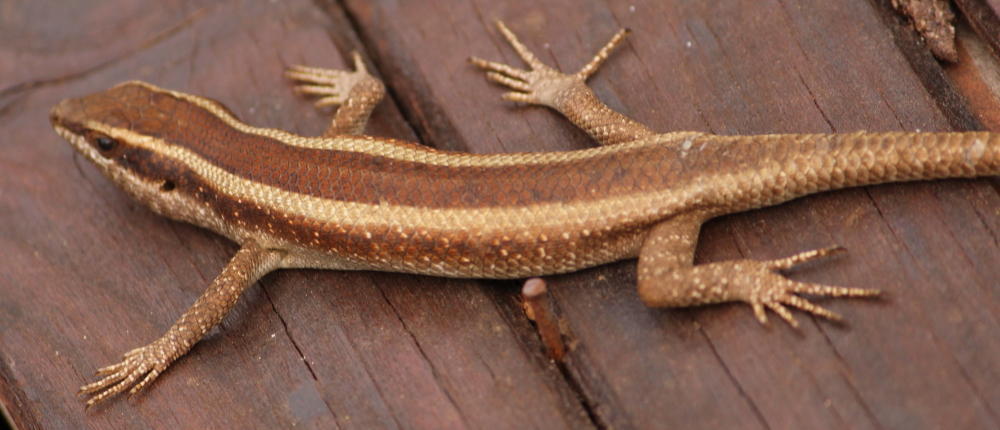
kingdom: Animalia
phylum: Chordata
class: Squamata
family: Scincidae
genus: Trachylepis
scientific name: Trachylepis striata
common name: African striped mabuya
